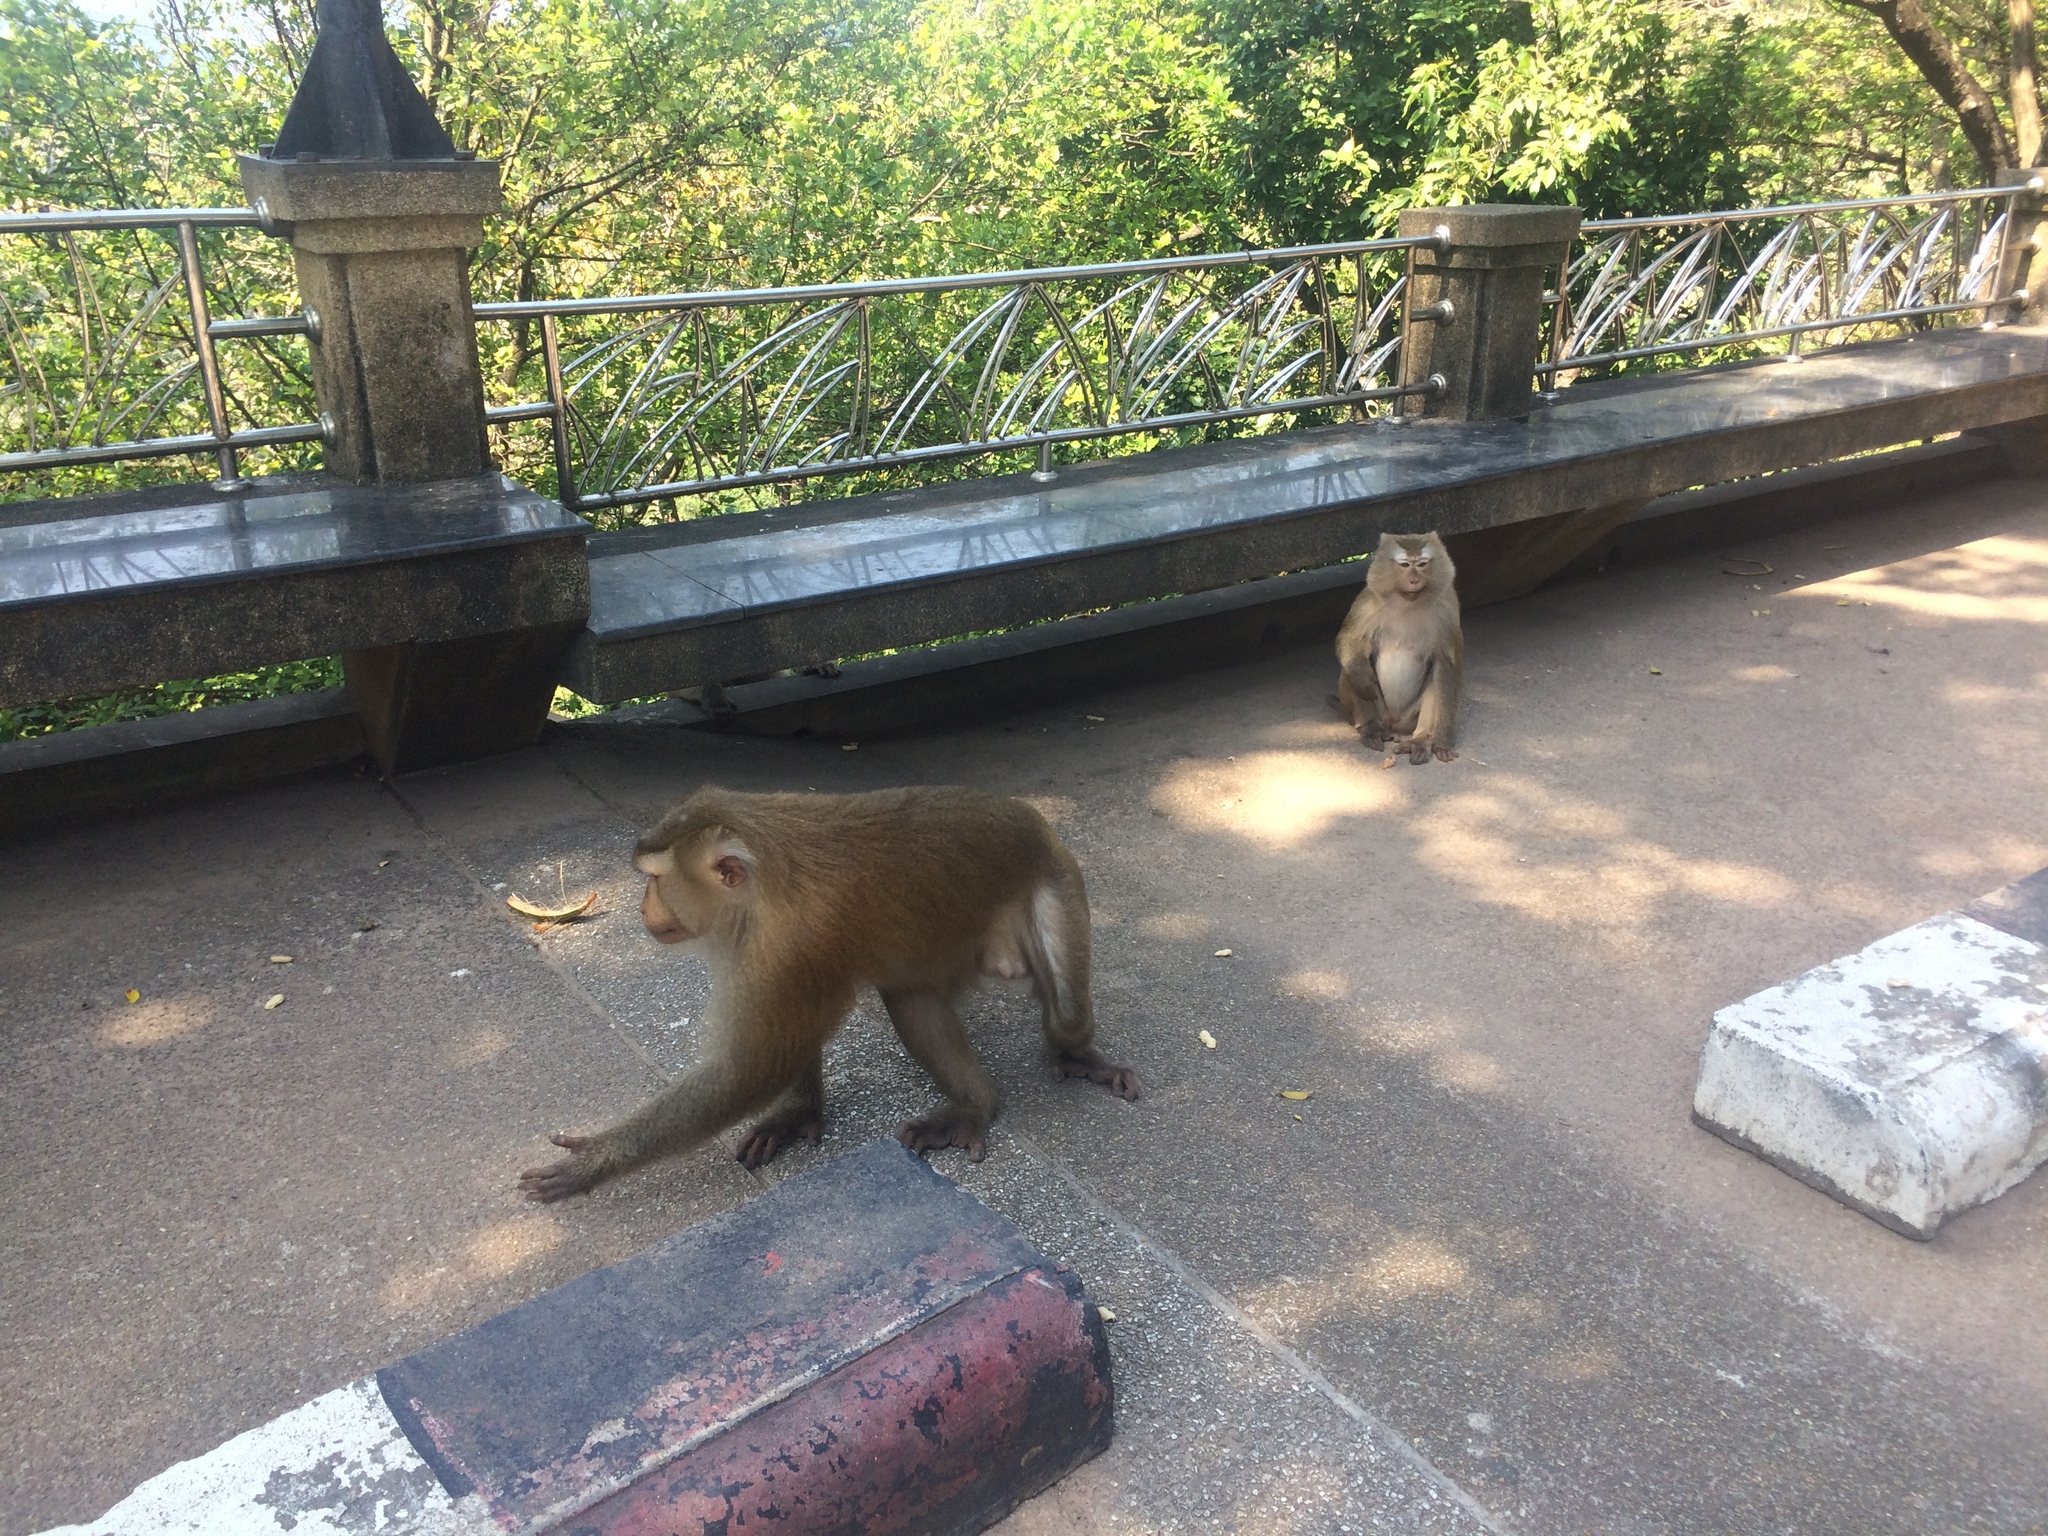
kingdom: Animalia
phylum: Chordata
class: Mammalia
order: Primates
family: Cercopithecidae
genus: Macaca
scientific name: Macaca leonina
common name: Northern pig-tailed macaque
